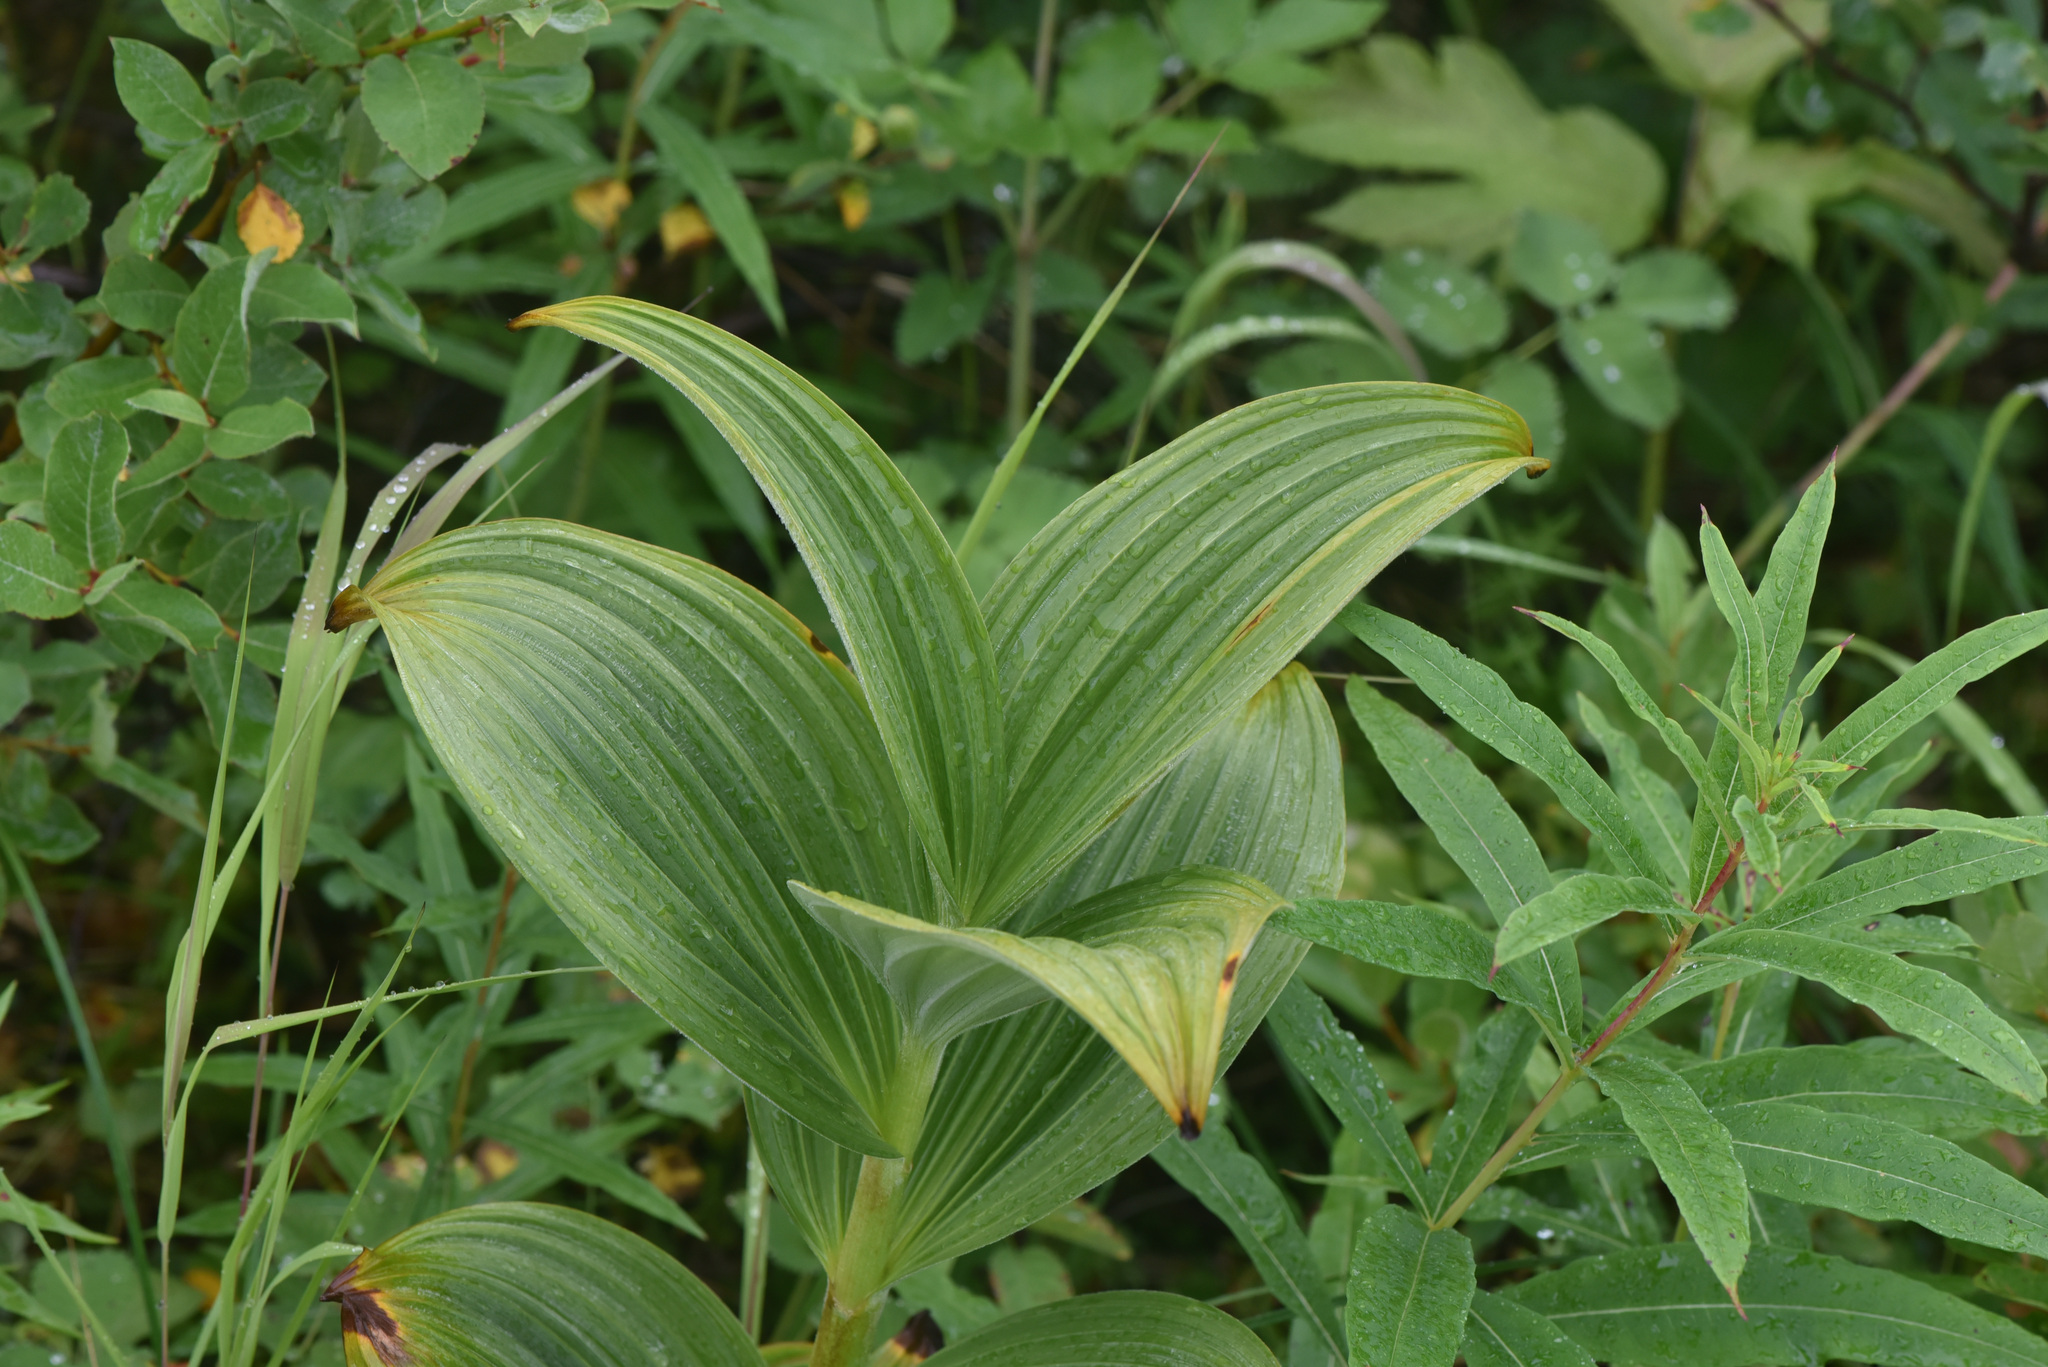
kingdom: Plantae
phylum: Tracheophyta
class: Liliopsida
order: Liliales
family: Melanthiaceae
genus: Veratrum
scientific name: Veratrum viride
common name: American false hellebore
